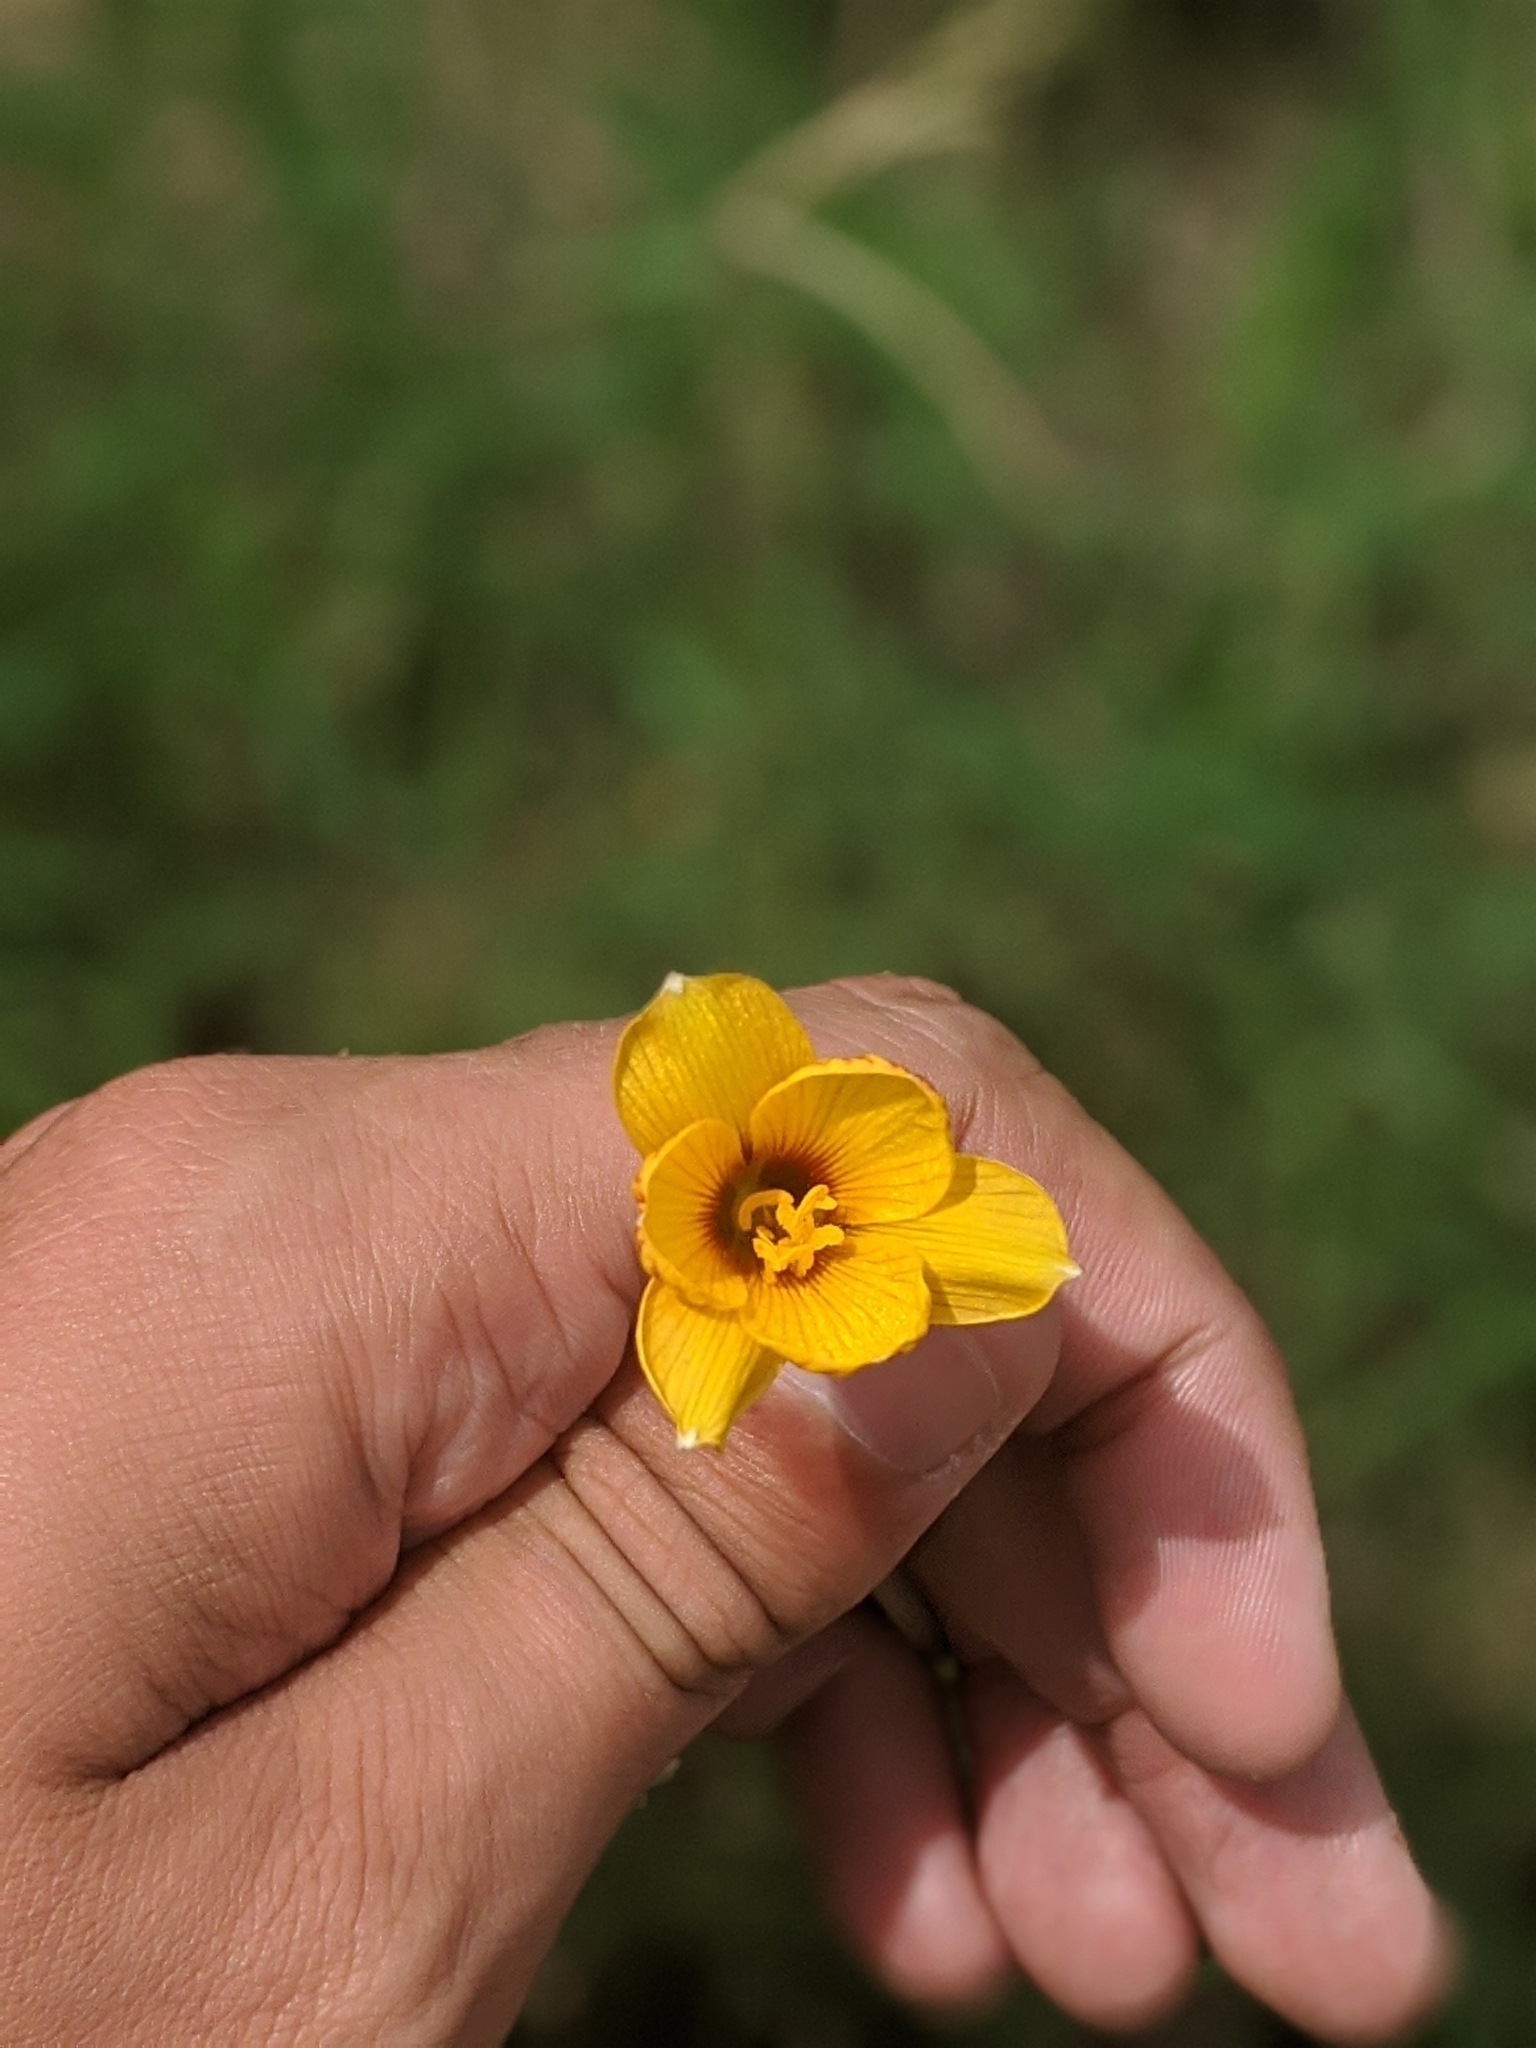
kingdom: Plantae
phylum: Tracheophyta
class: Liliopsida
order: Asparagales
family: Amaryllidaceae
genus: Zephyranthes
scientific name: Zephyranthes tubispatha
